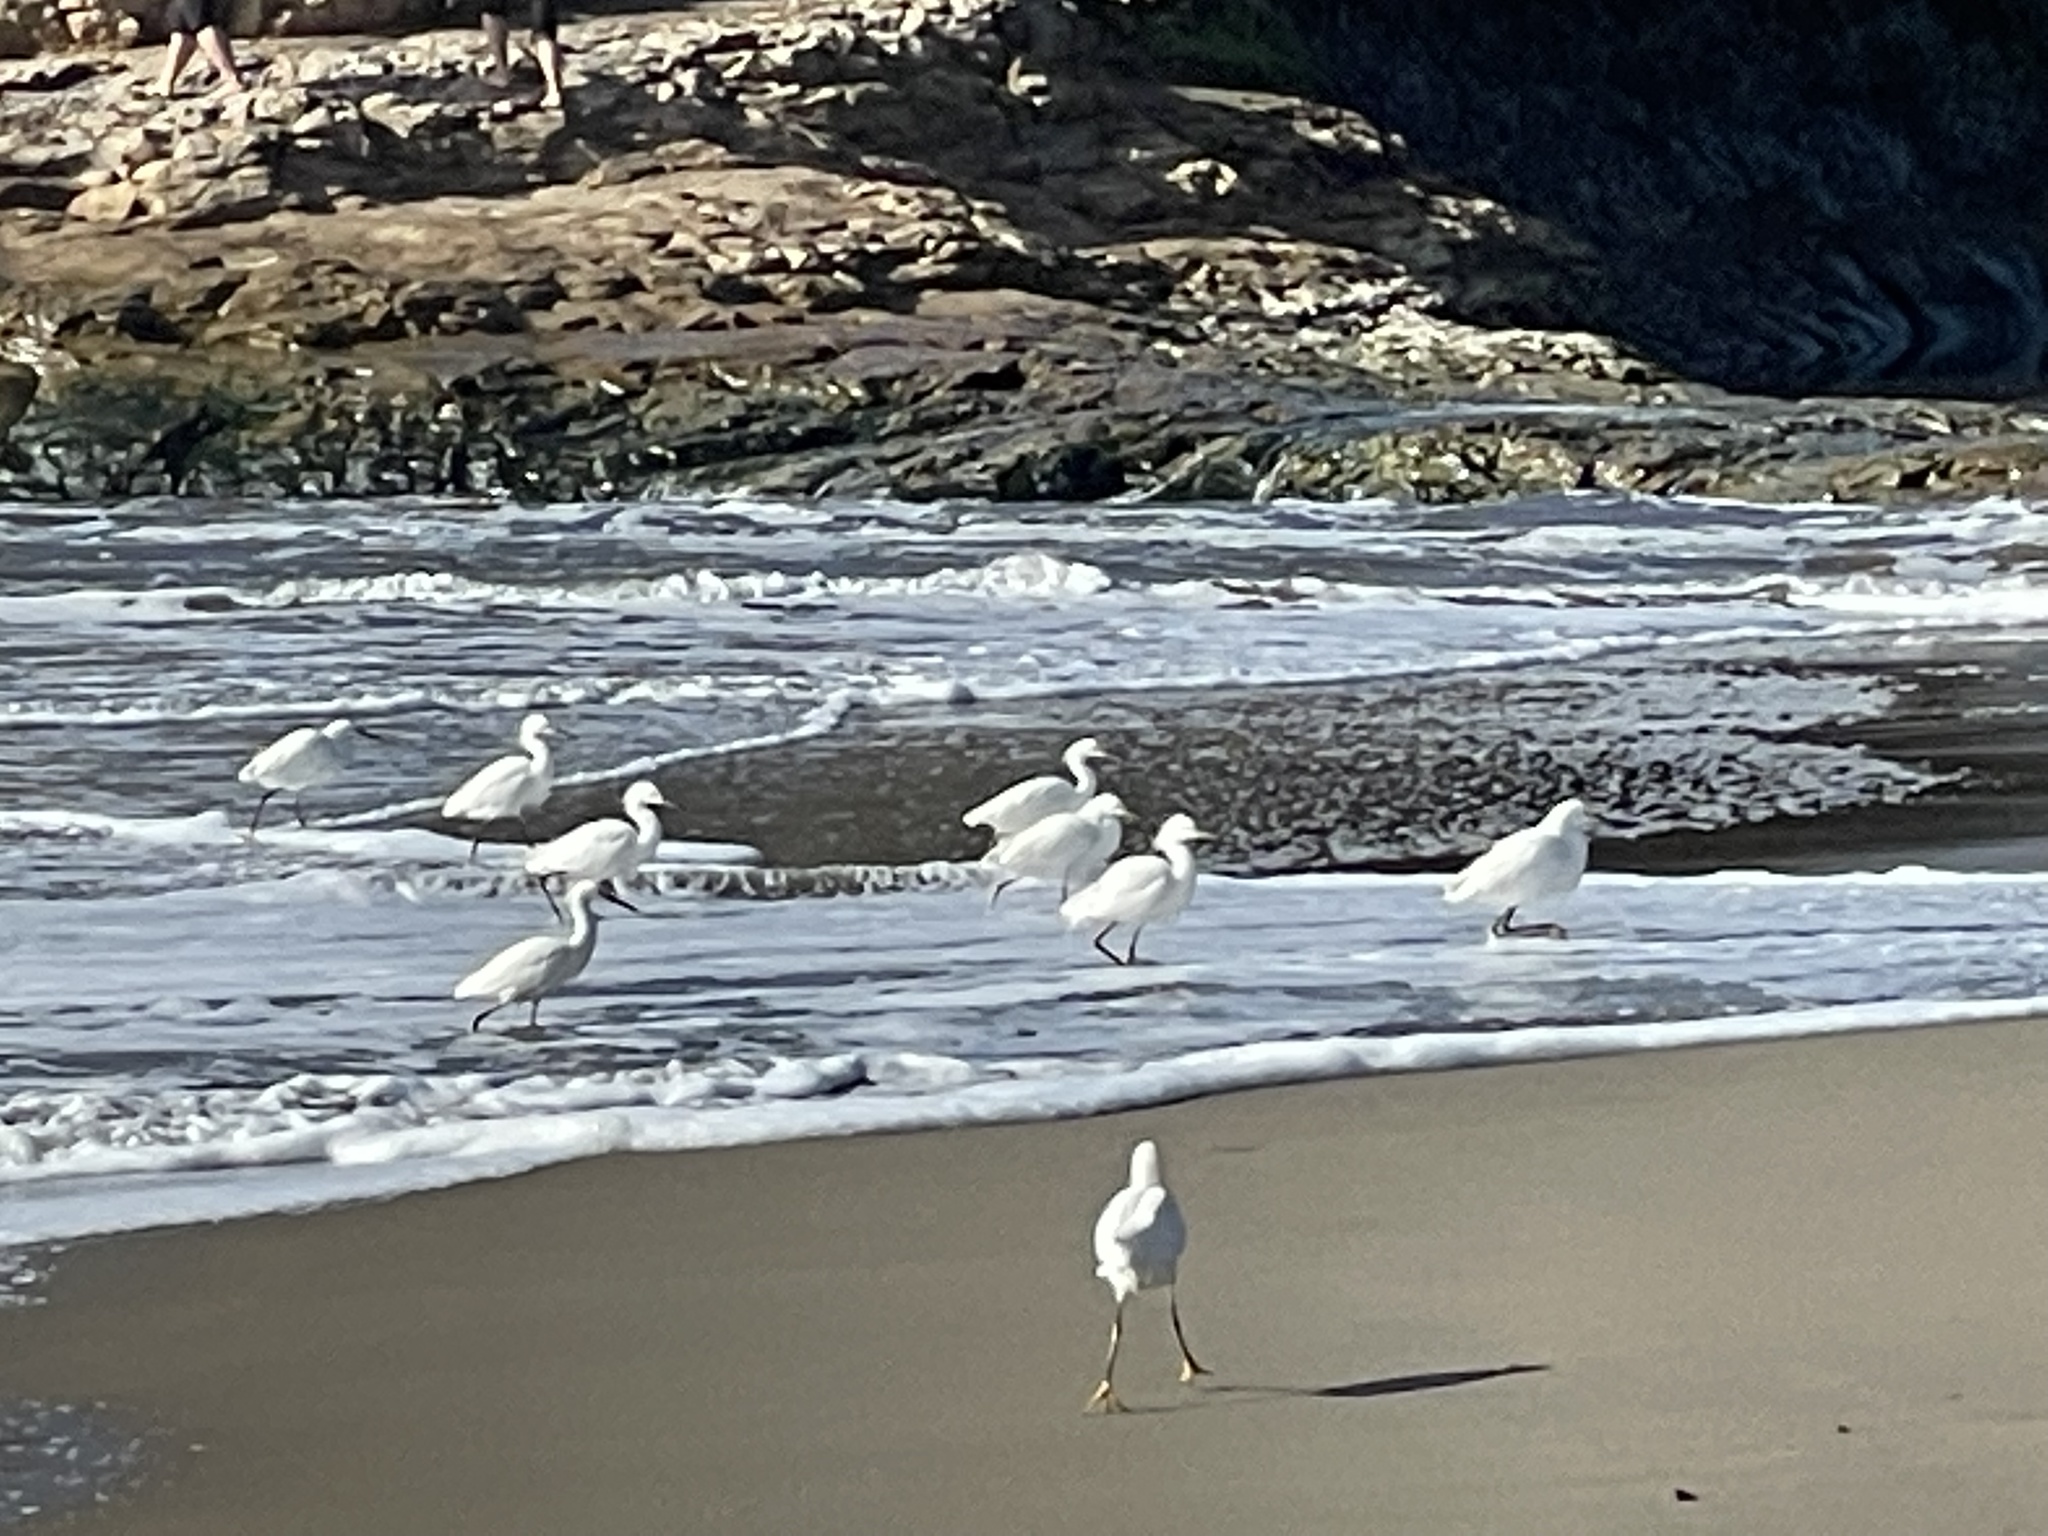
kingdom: Animalia
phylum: Chordata
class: Aves
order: Pelecaniformes
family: Ardeidae
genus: Egretta
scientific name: Egretta thula
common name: Snowy egret
